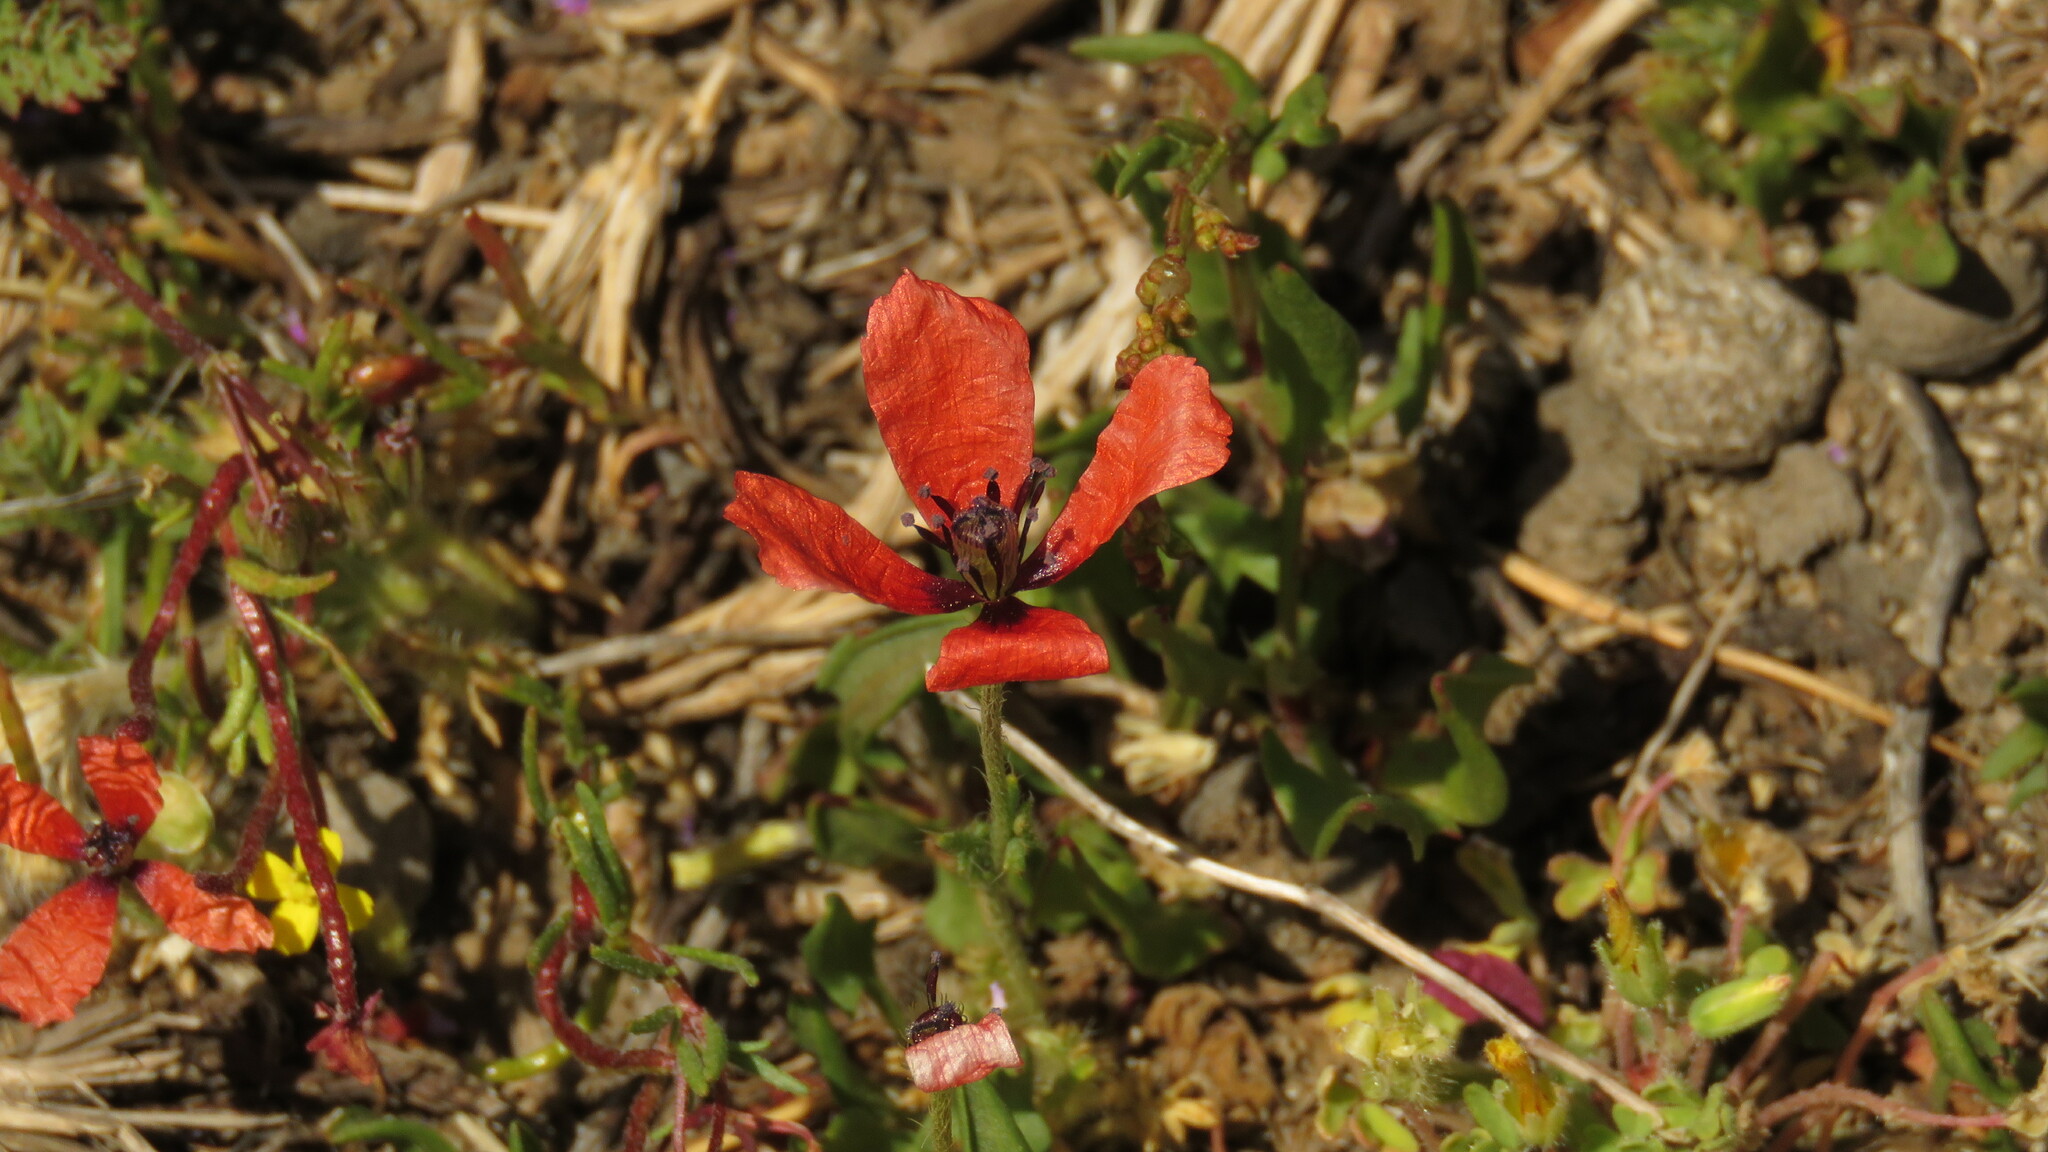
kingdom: Plantae
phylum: Tracheophyta
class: Magnoliopsida
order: Ranunculales
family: Papaveraceae
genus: Roemeria
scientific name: Roemeria argemone
